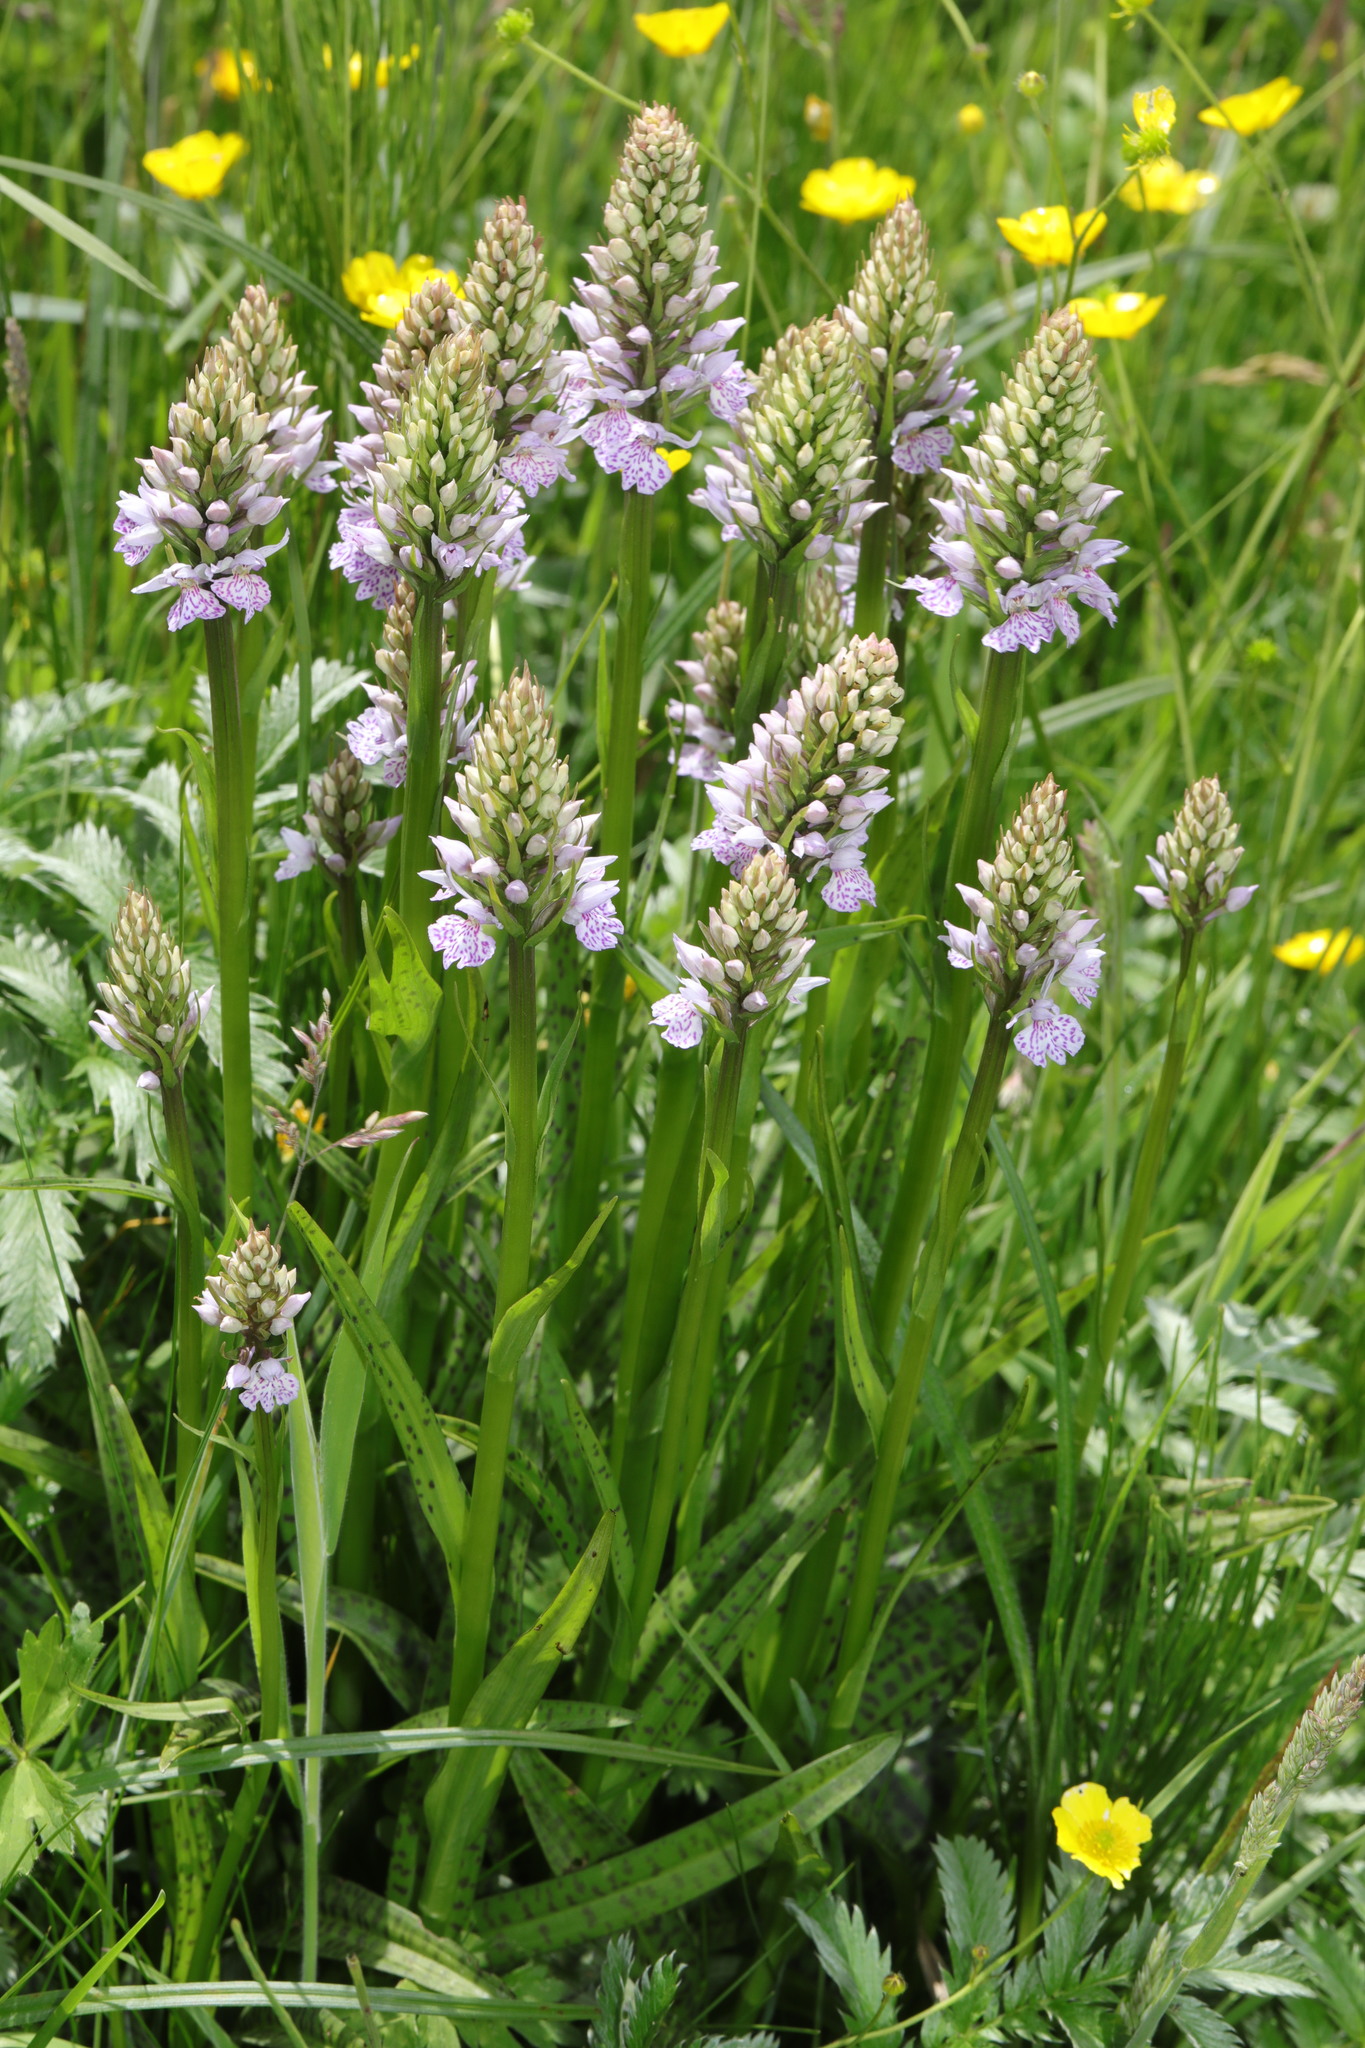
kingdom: Plantae
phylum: Tracheophyta
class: Liliopsida
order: Asparagales
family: Orchidaceae
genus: Dactylorhiza
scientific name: Dactylorhiza maculata
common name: Heath spotted-orchid
